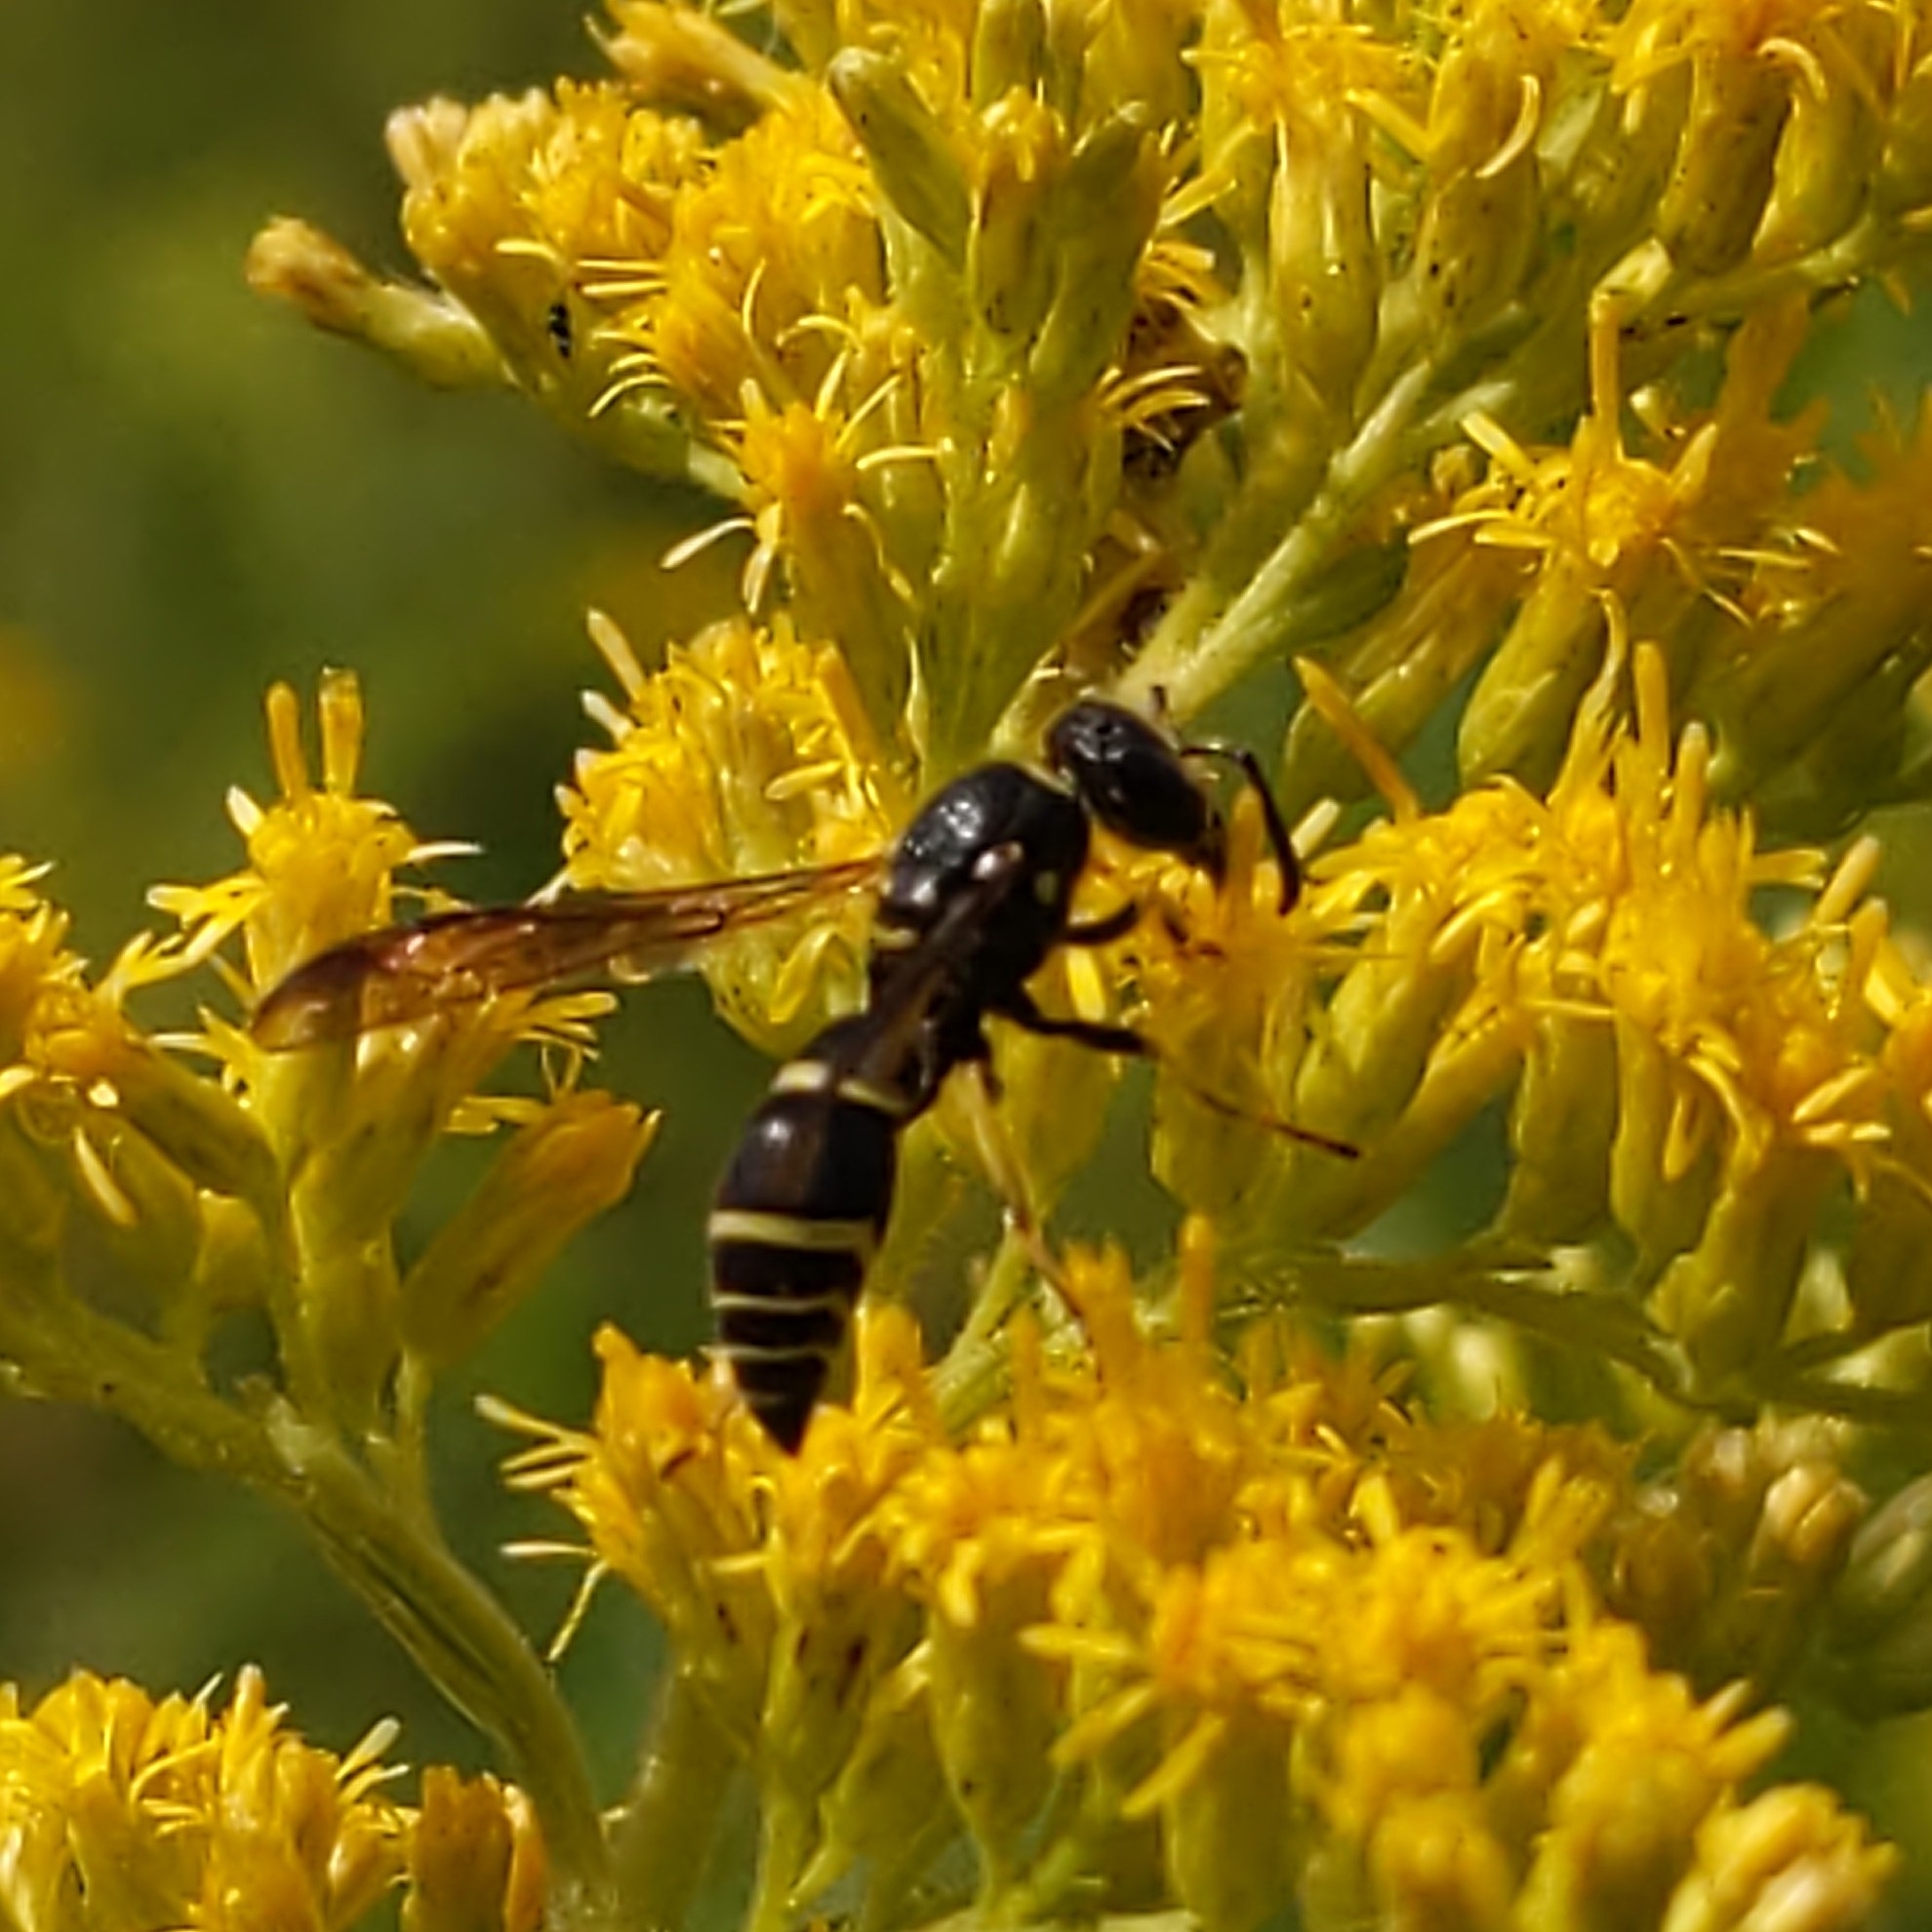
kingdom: Animalia
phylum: Arthropoda
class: Insecta
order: Hymenoptera
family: Vespidae
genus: Ancistrocerus
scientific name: Ancistrocerus adiabatus
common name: Bramble mason wasp
